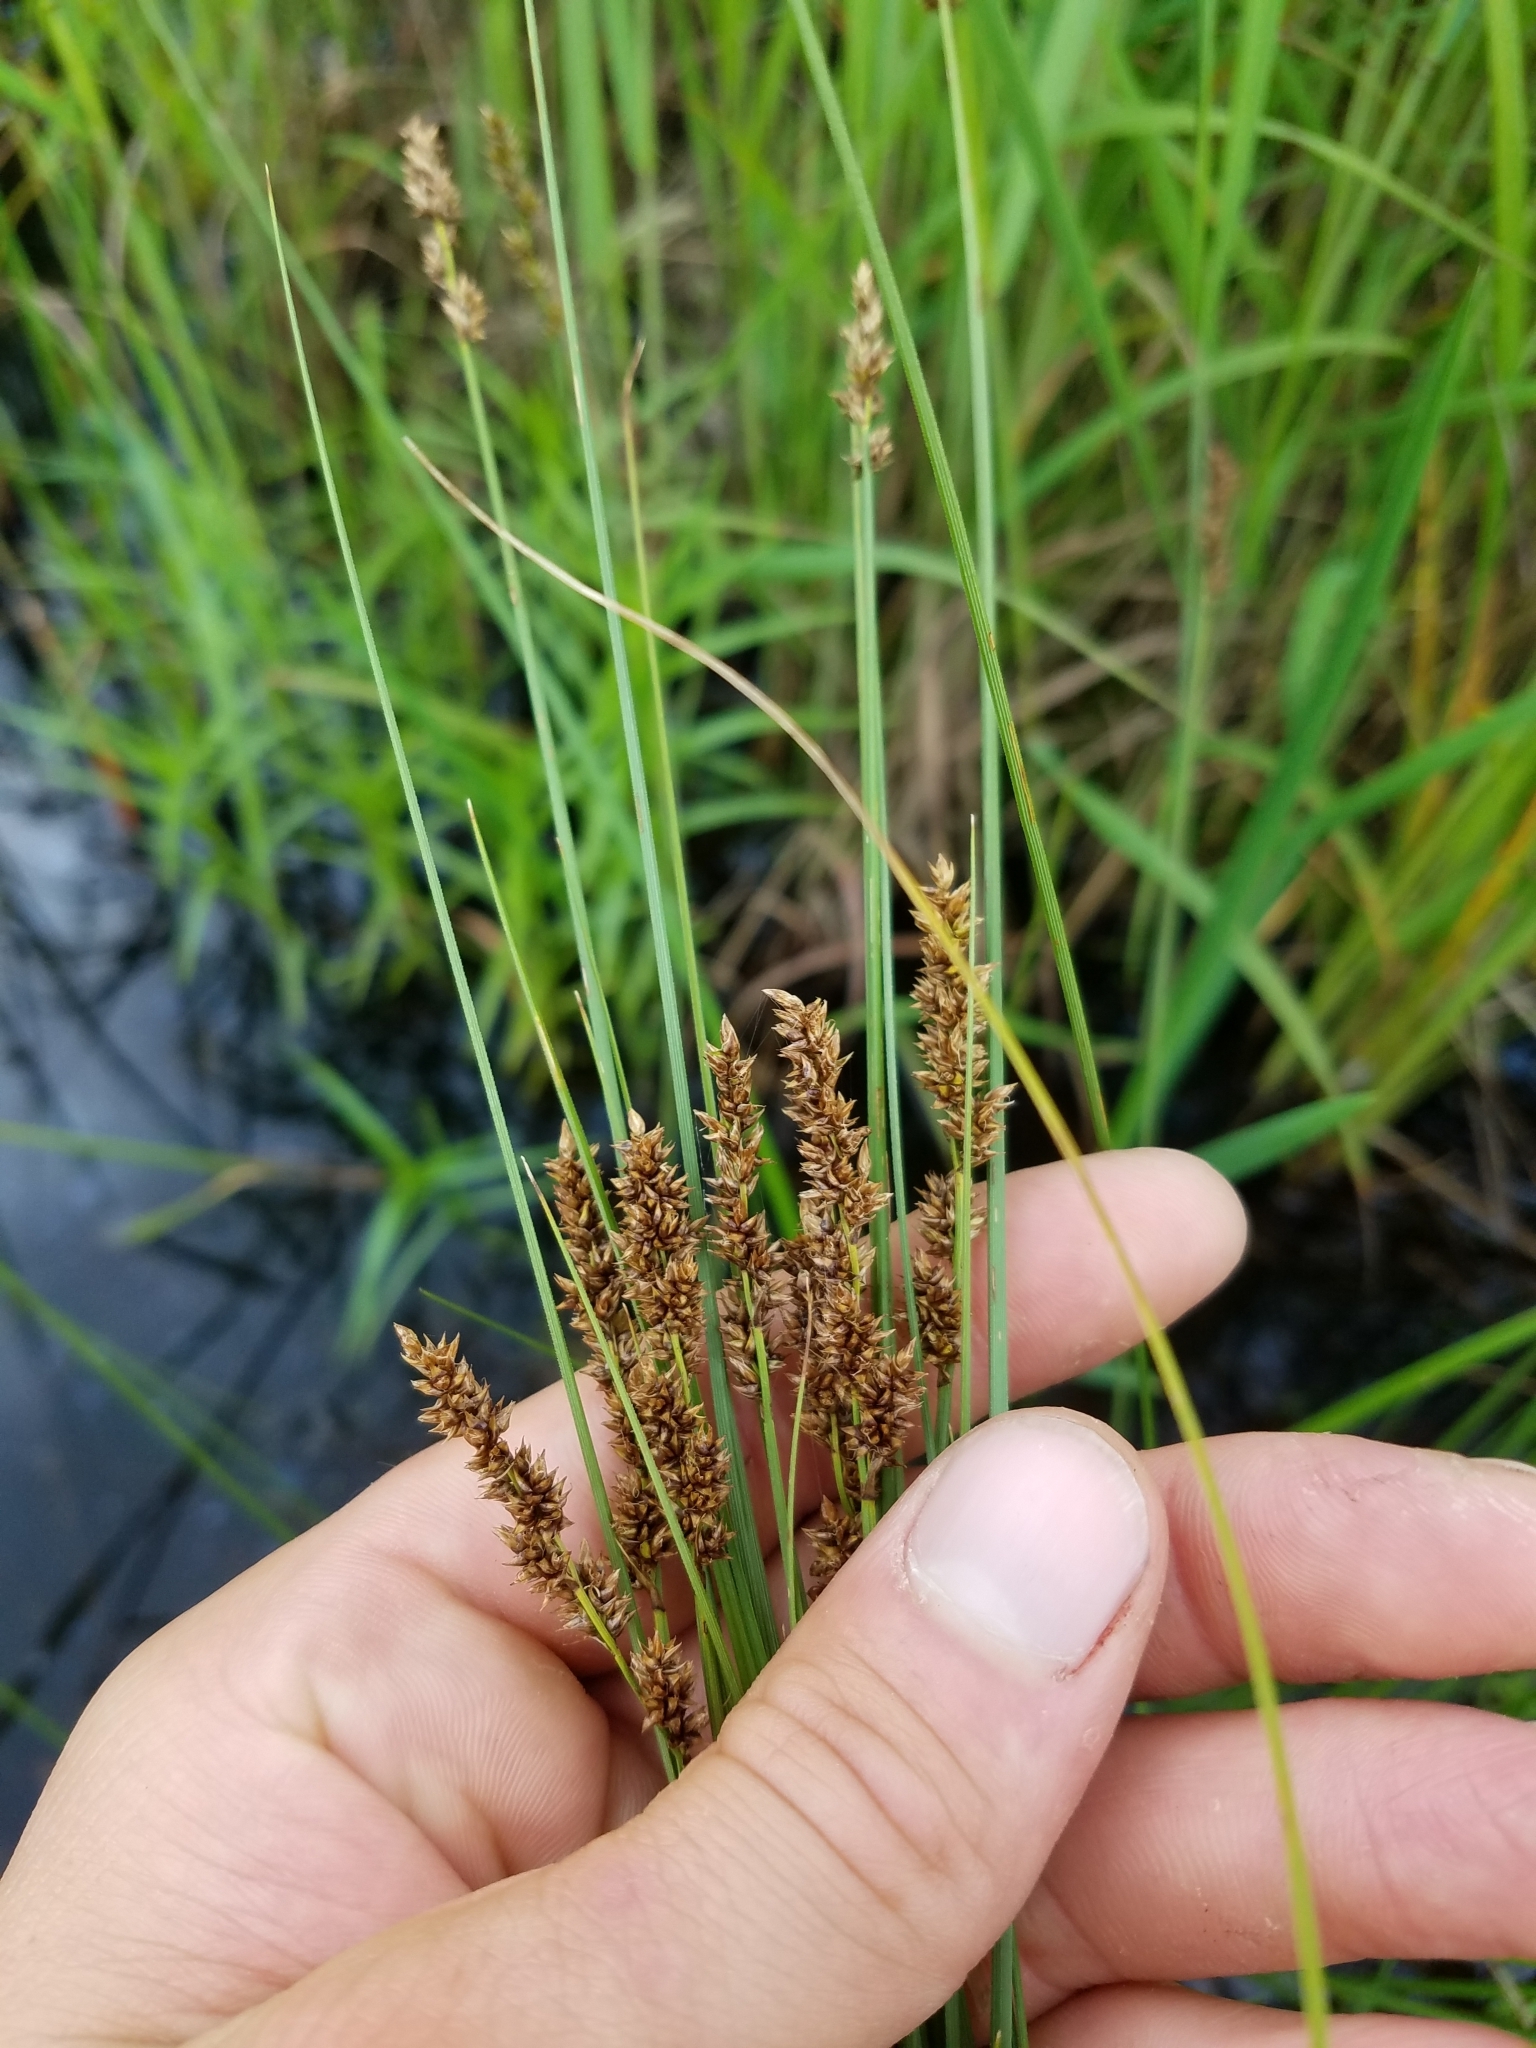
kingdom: Plantae
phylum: Tracheophyta
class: Liliopsida
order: Poales
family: Cyperaceae
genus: Carex
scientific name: Carex diandra
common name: Lesser tussock-sedge
